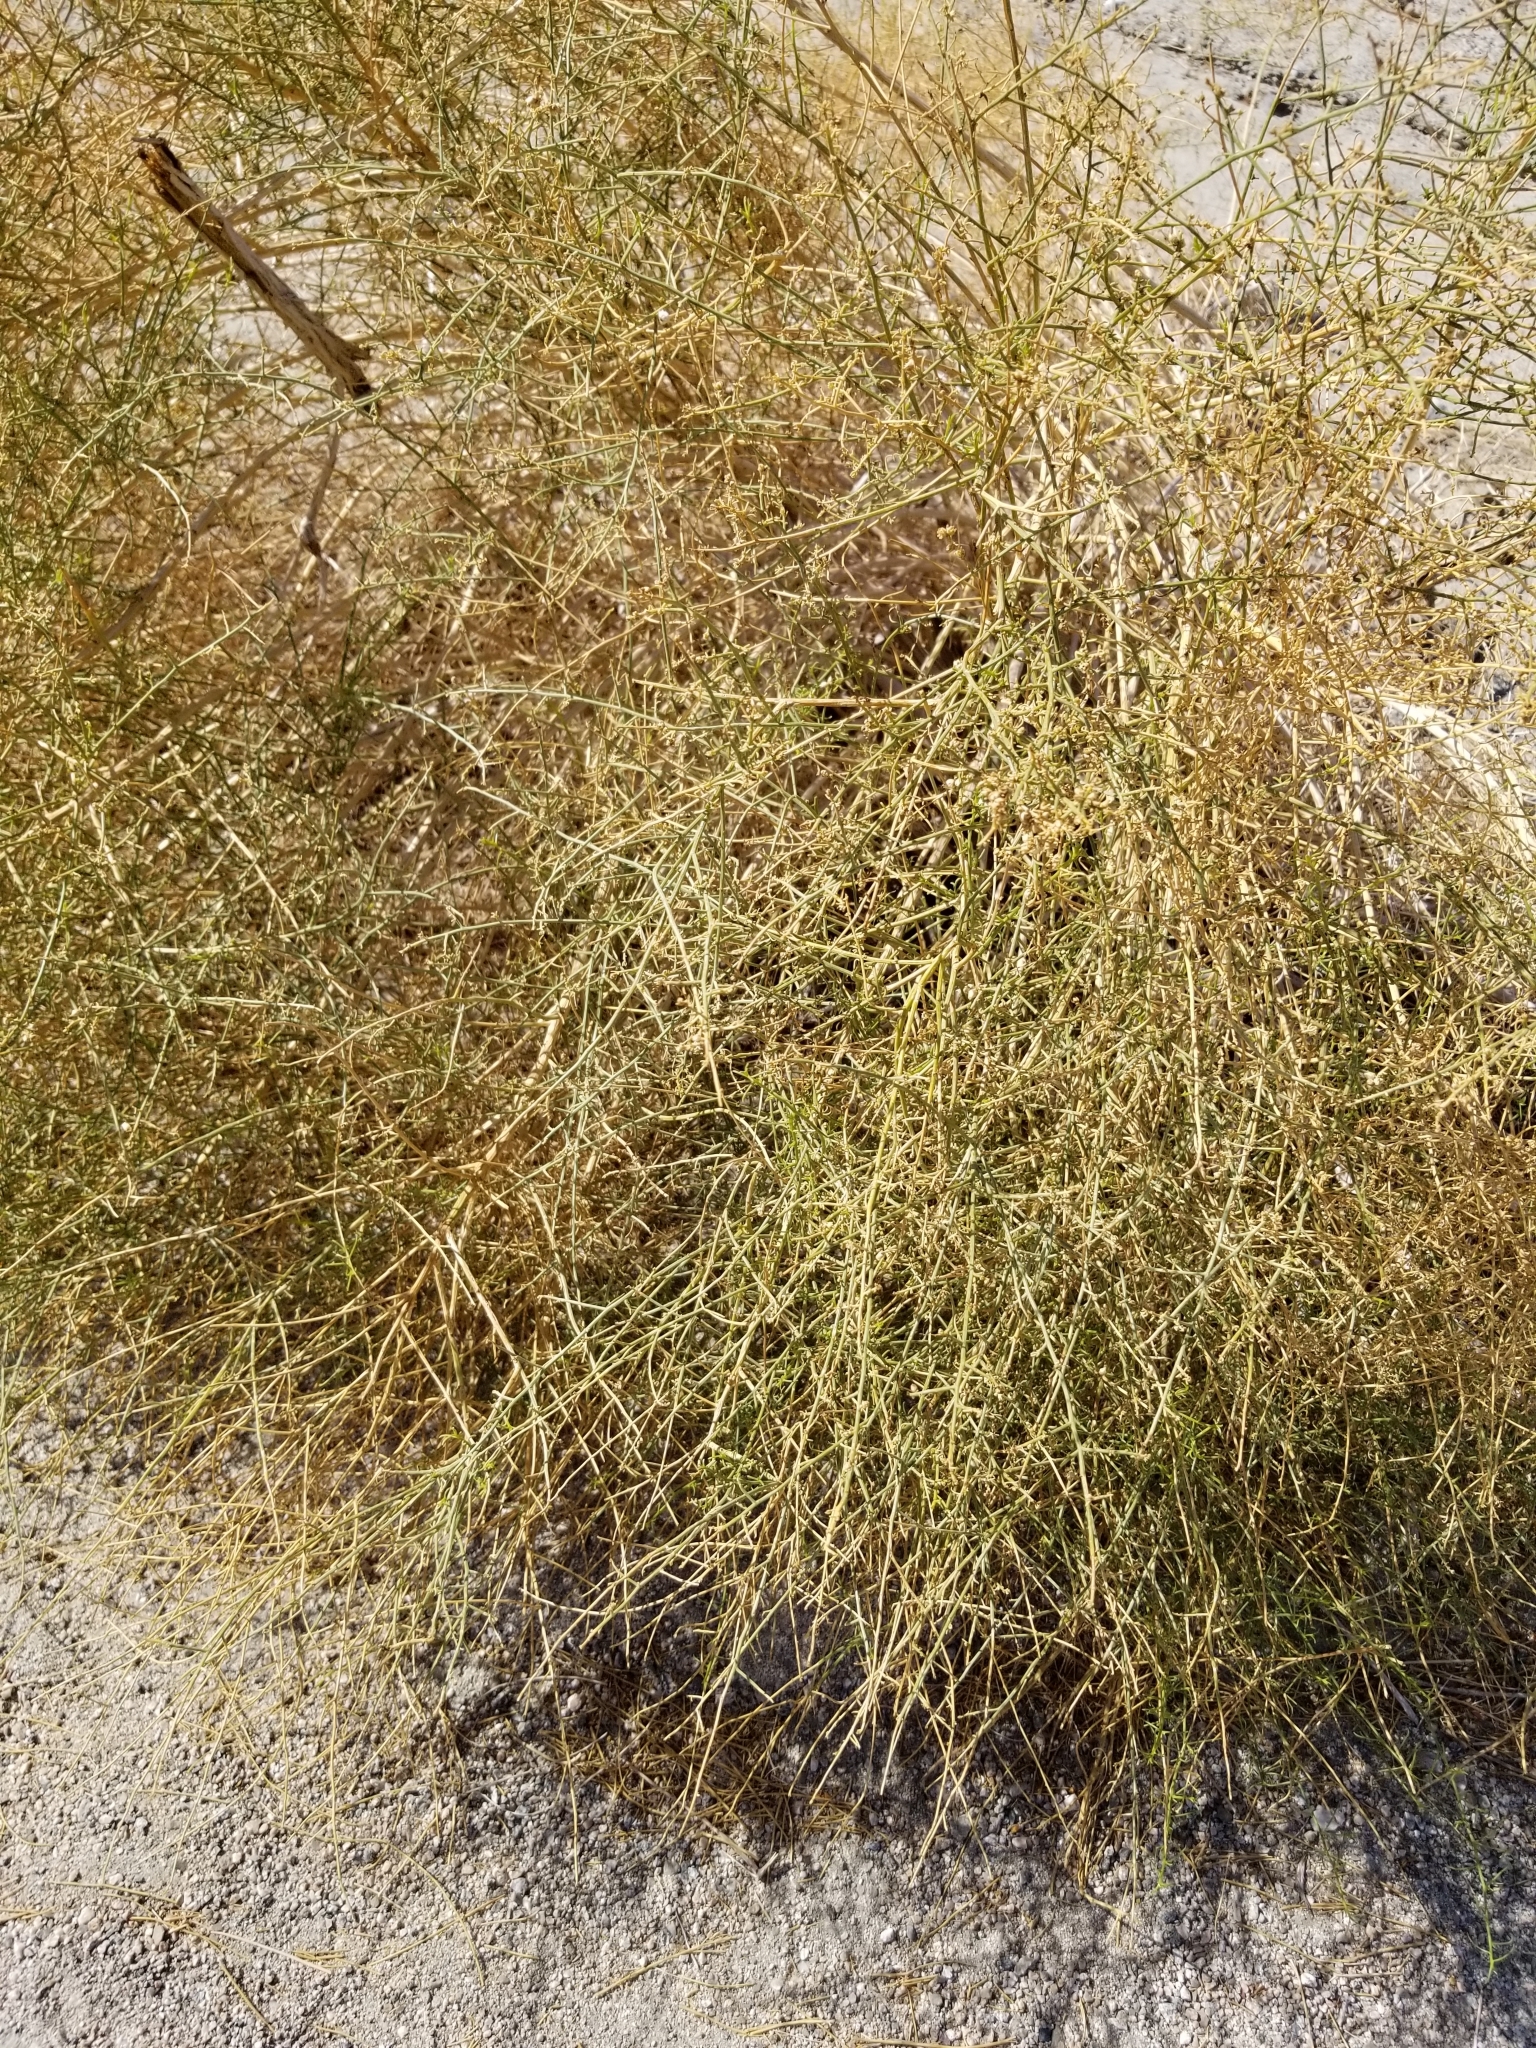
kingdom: Plantae
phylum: Tracheophyta
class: Magnoliopsida
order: Asterales
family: Asteraceae
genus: Ambrosia
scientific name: Ambrosia salsola
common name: Burrobrush
